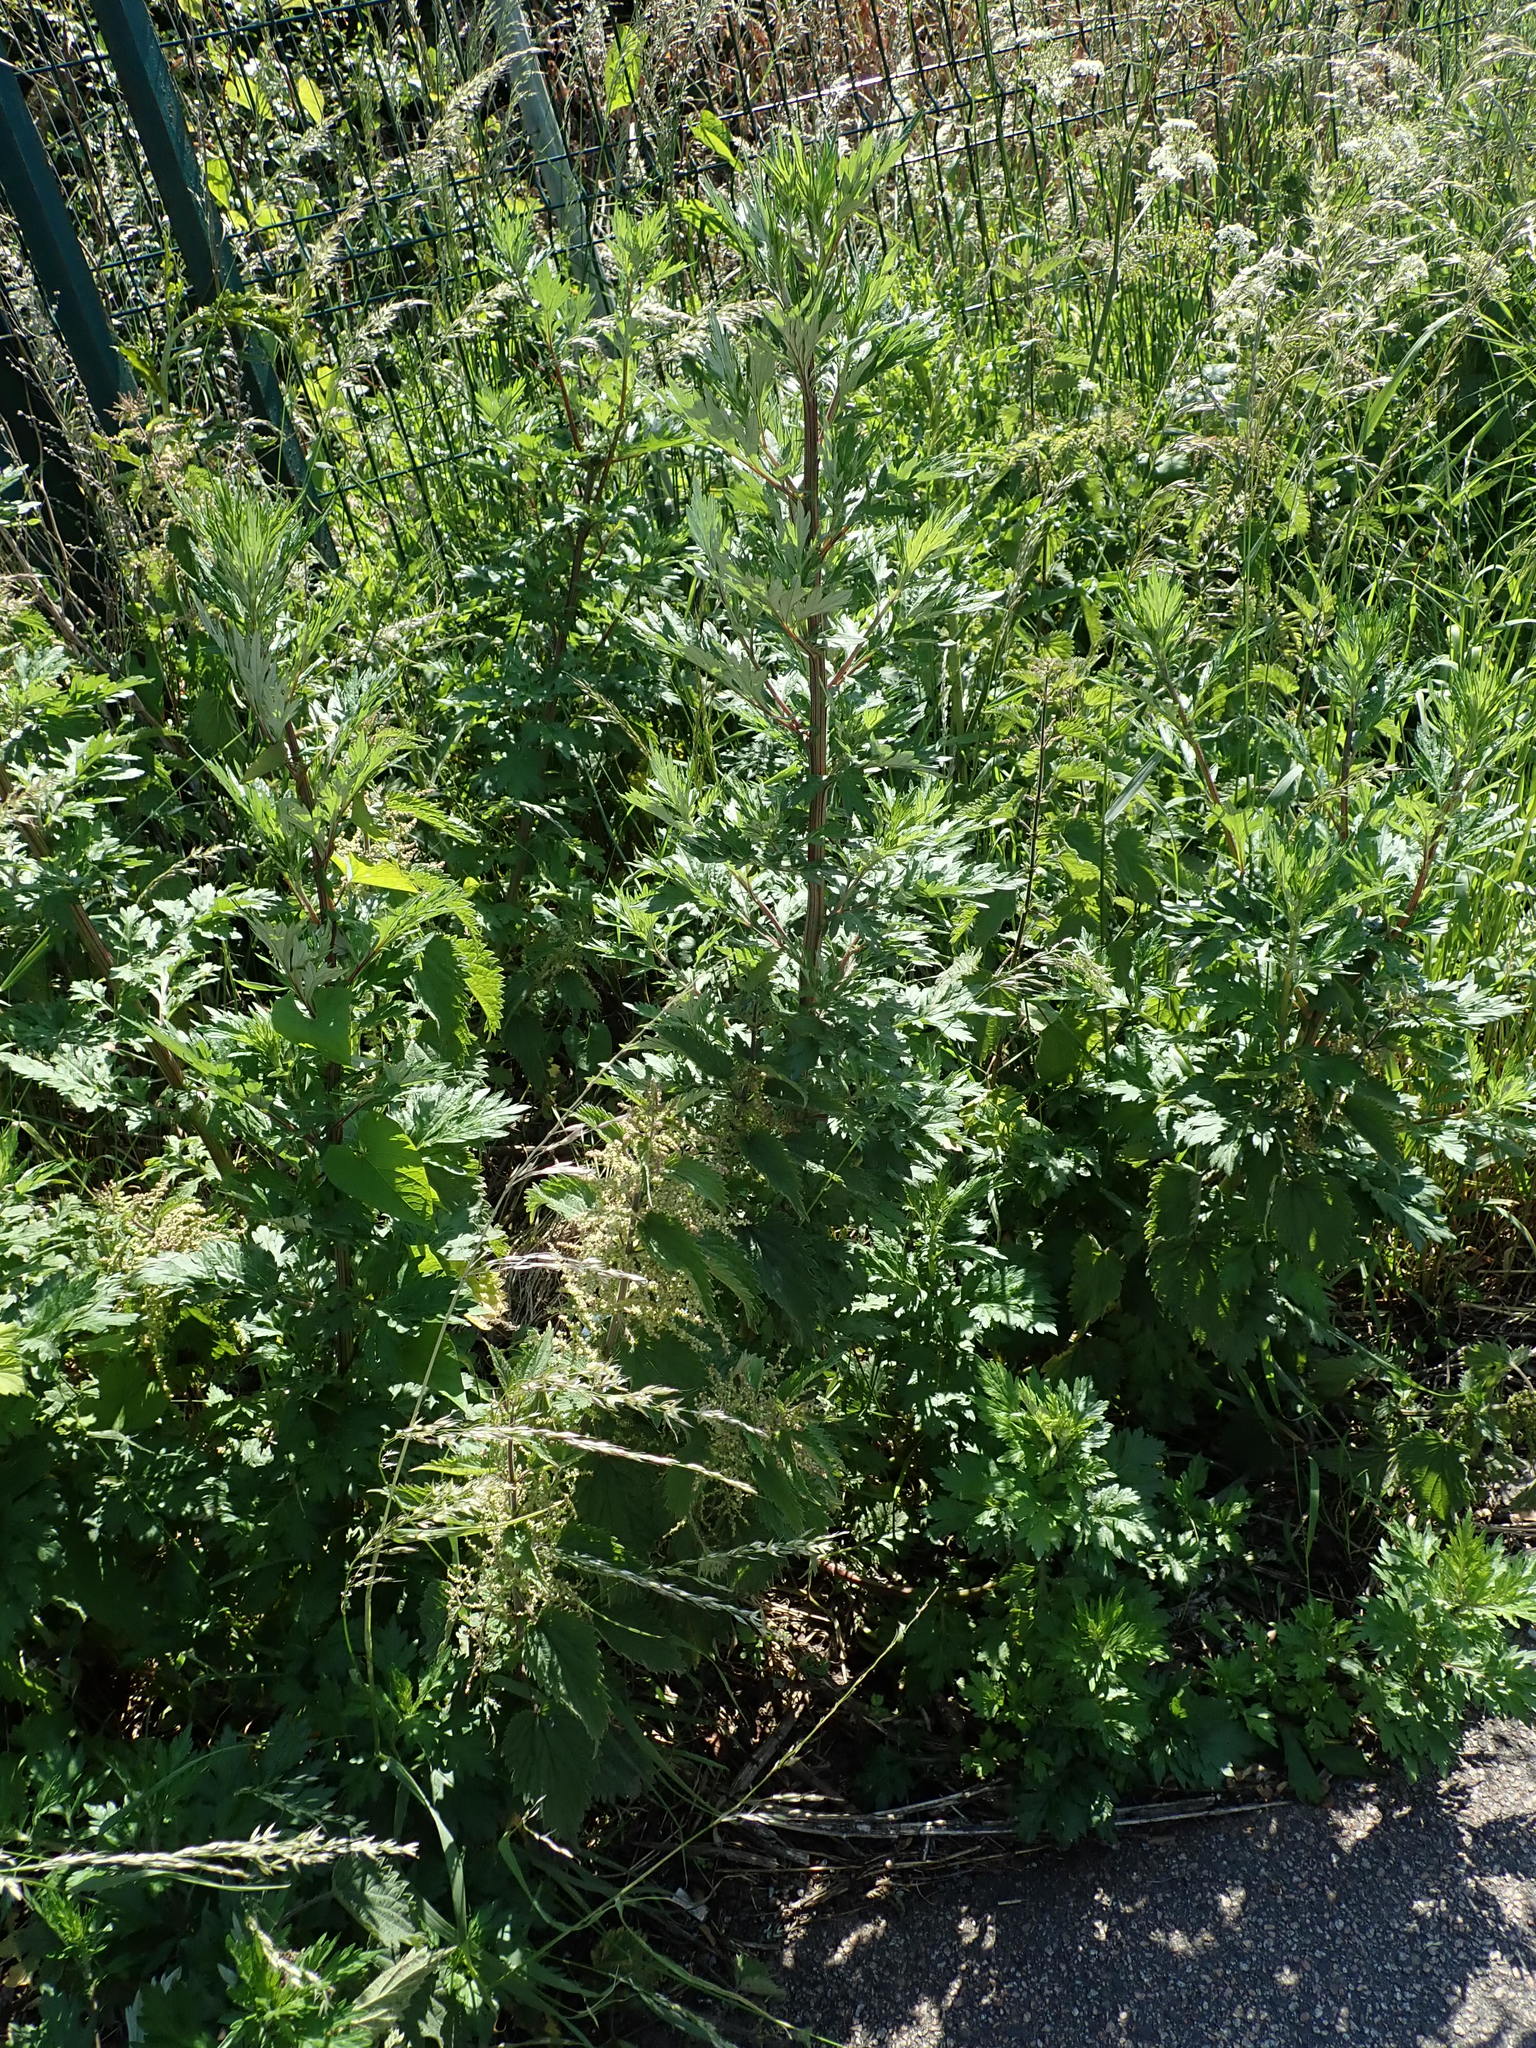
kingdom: Plantae
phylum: Tracheophyta
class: Magnoliopsida
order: Asterales
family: Asteraceae
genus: Artemisia
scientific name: Artemisia vulgaris
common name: Mugwort
